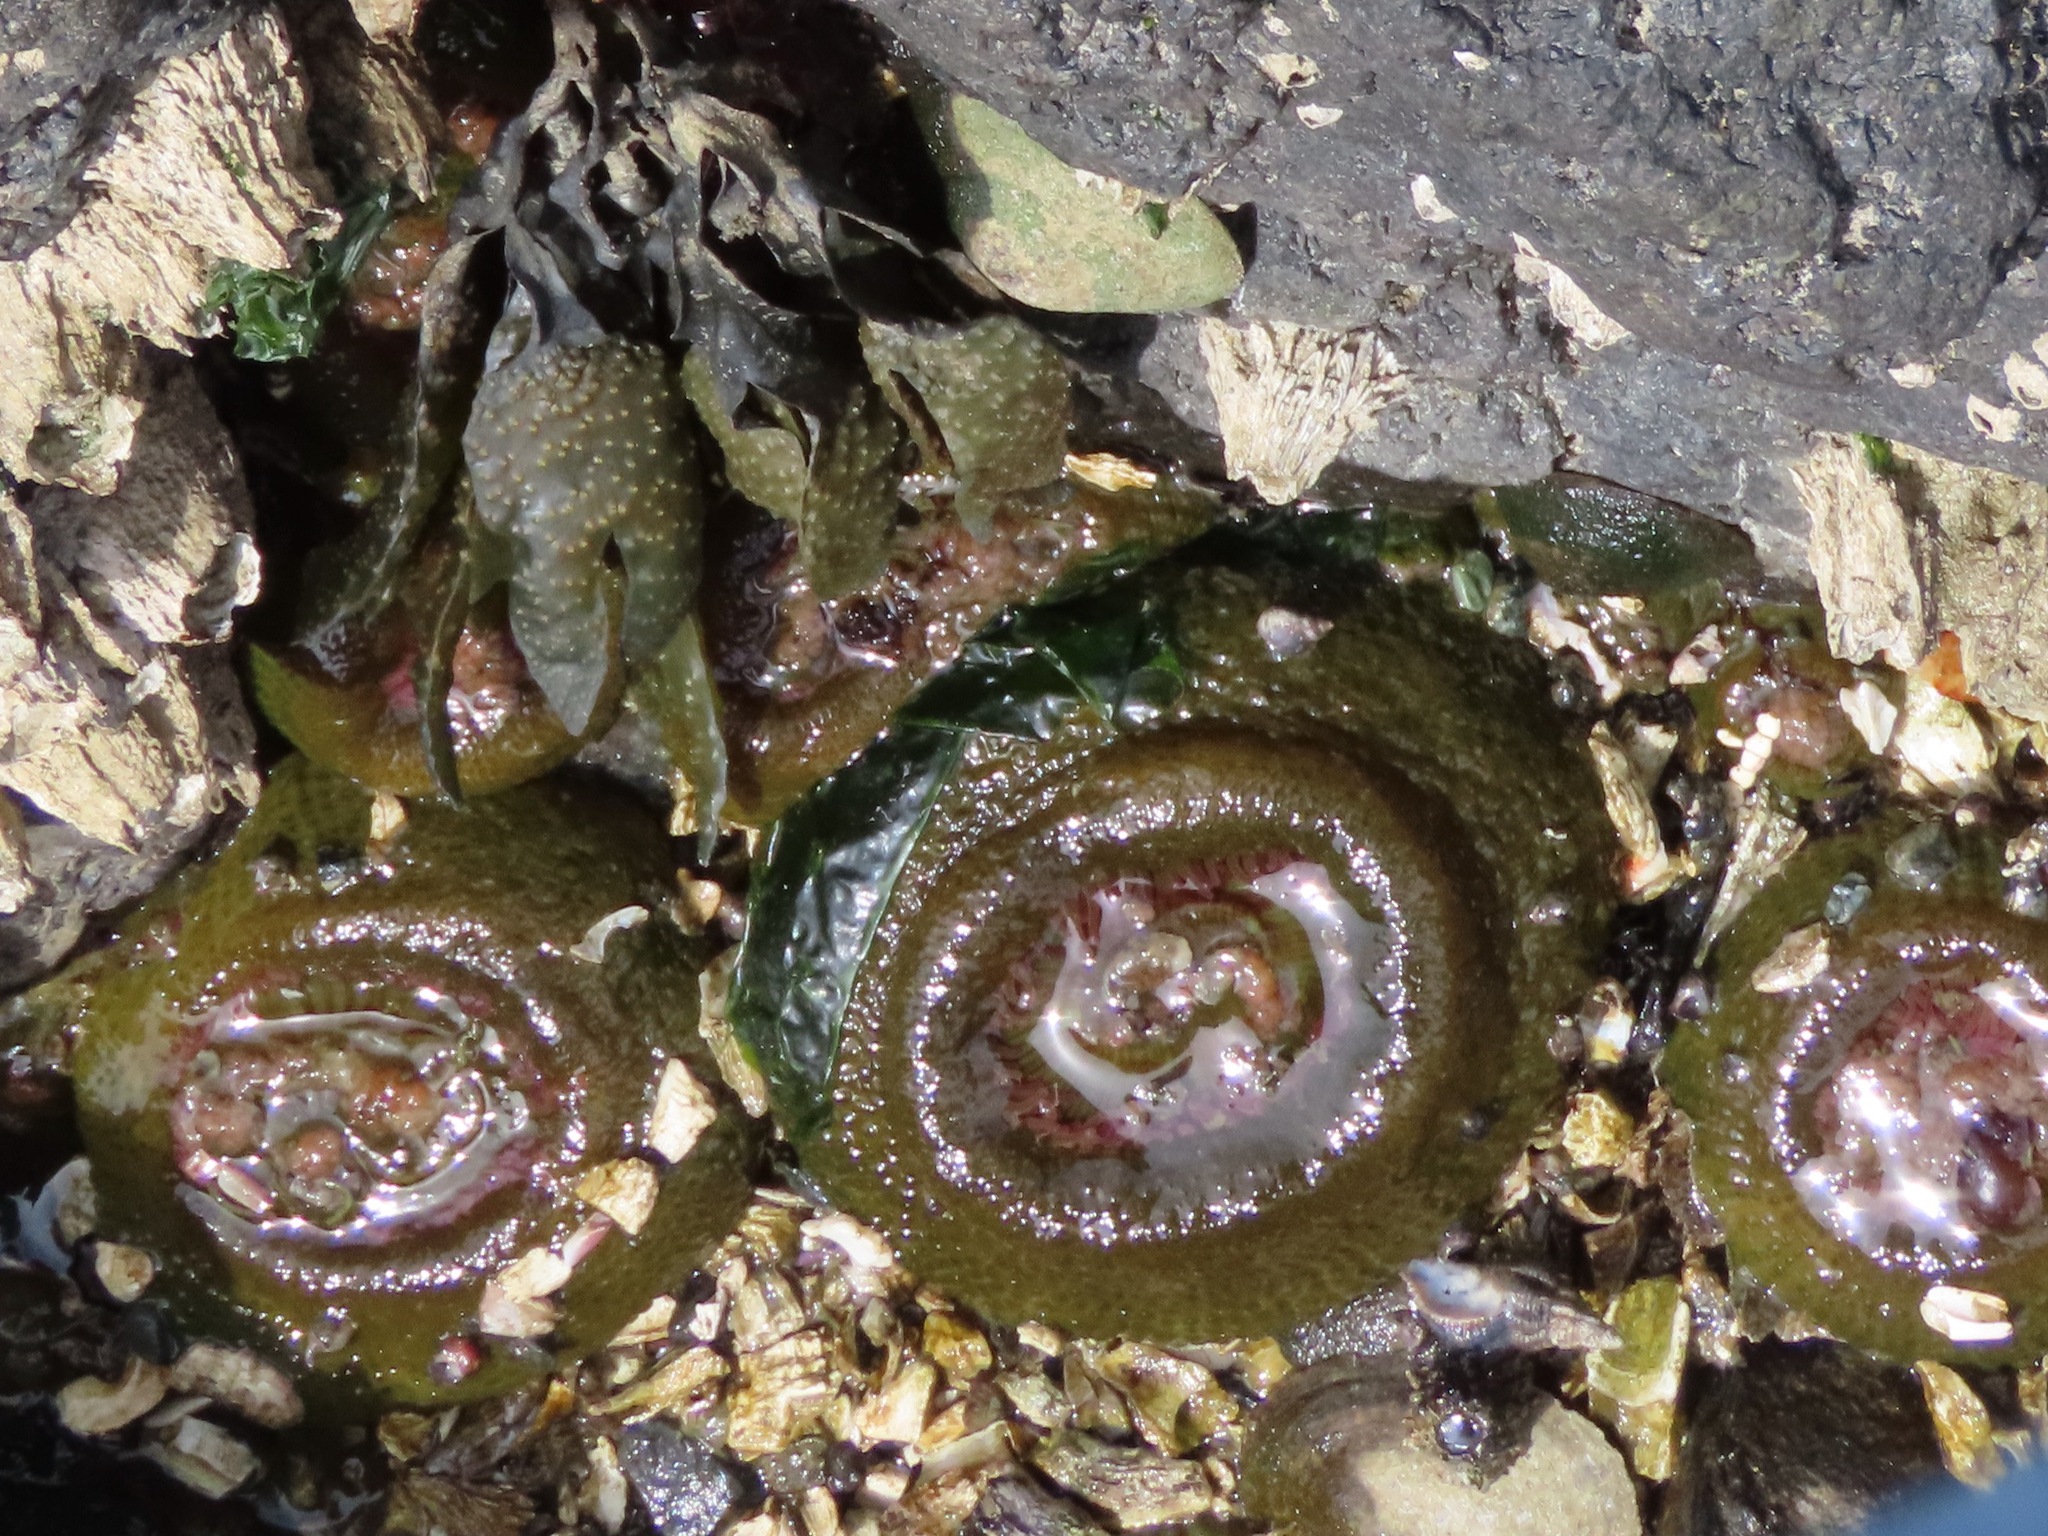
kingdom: Animalia
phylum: Cnidaria
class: Anthozoa
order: Actiniaria
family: Actiniidae
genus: Anthopleura
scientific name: Anthopleura elegantissima
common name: Clonal anemone
